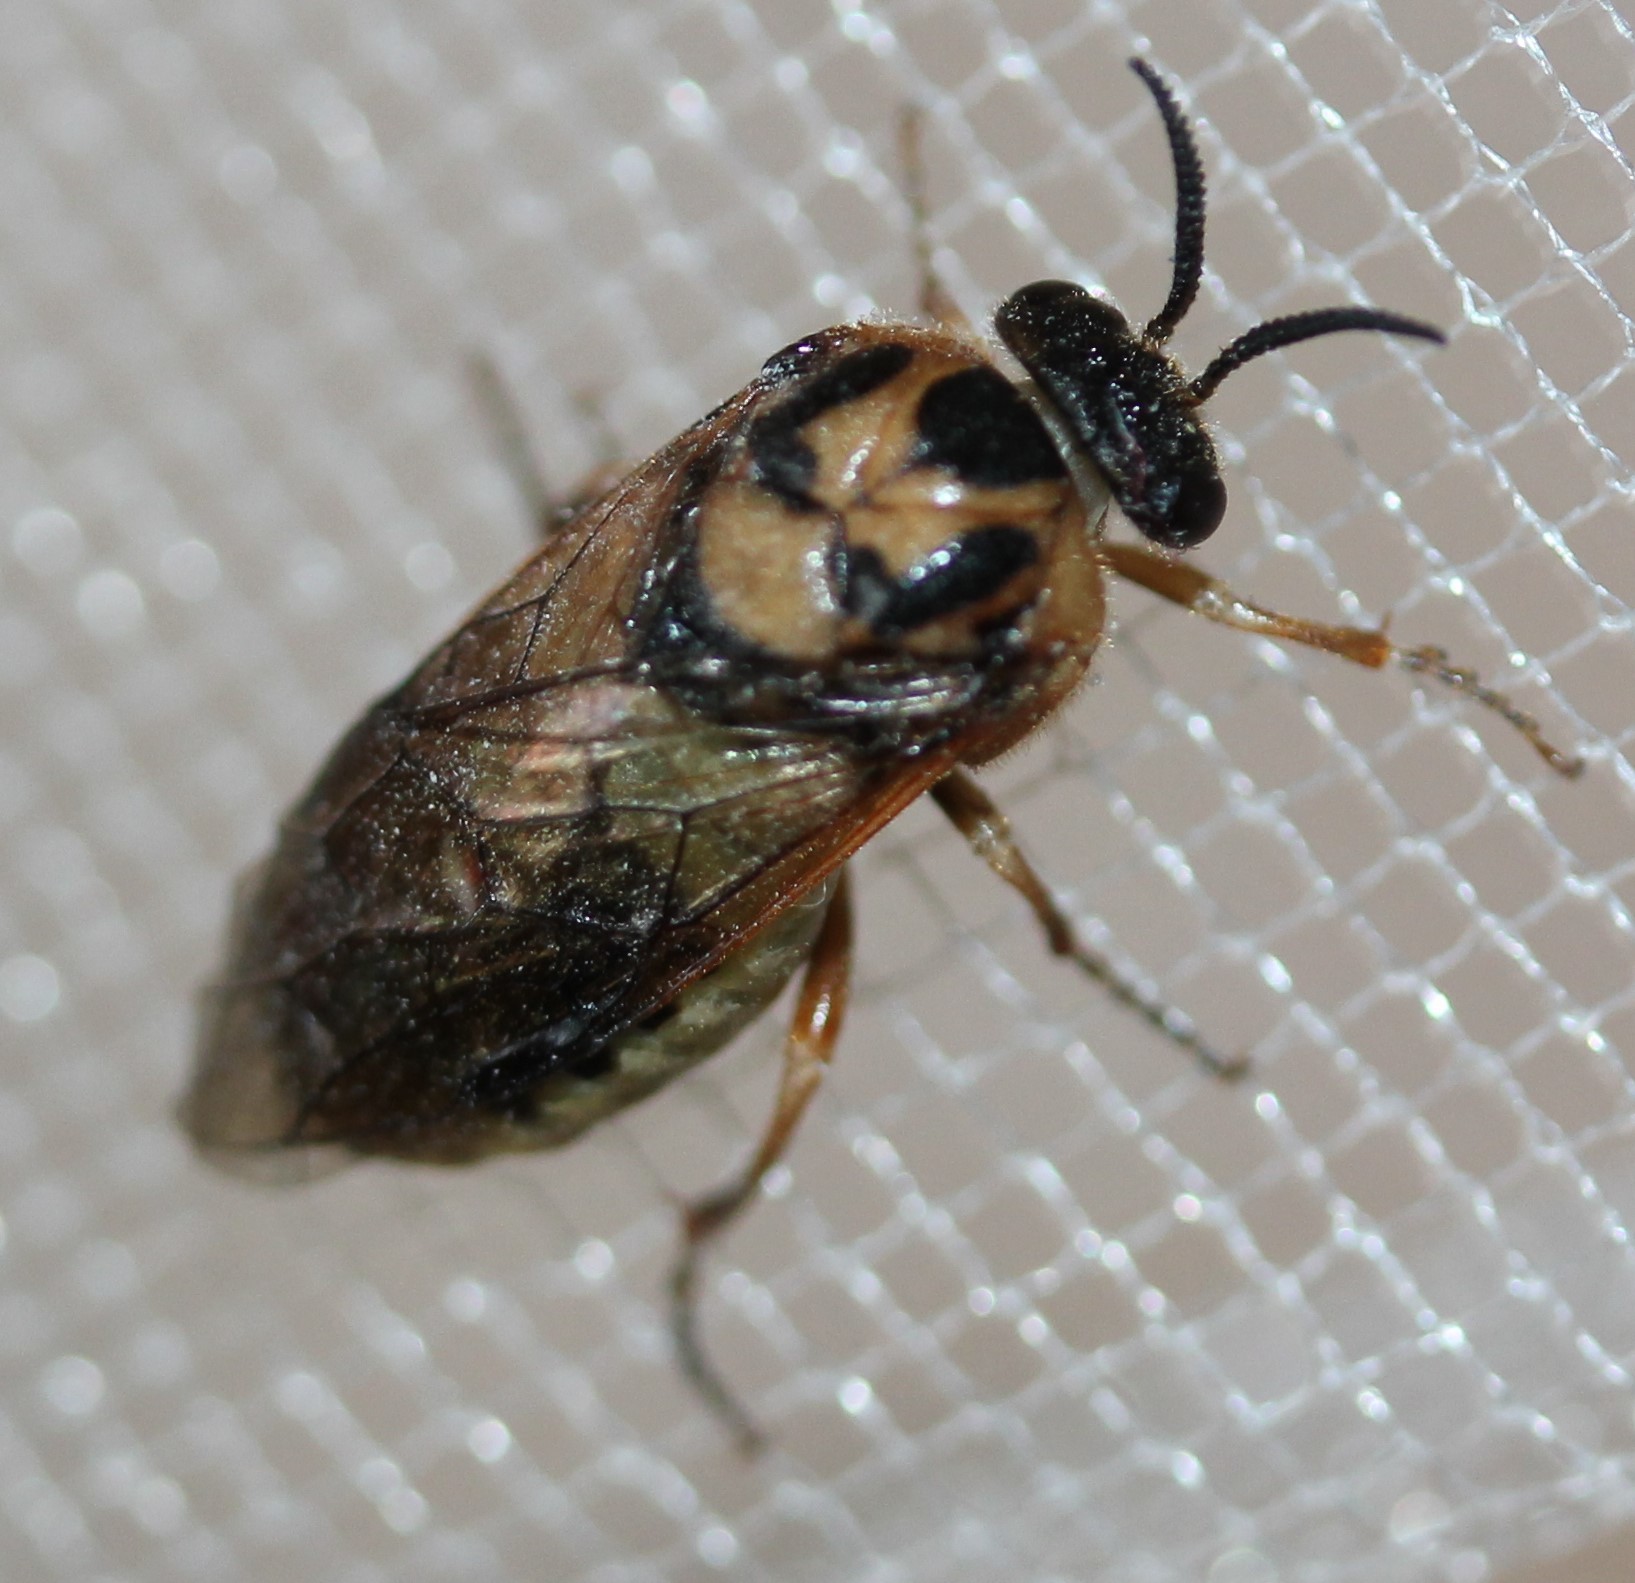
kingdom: Animalia
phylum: Arthropoda
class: Insecta
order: Hymenoptera
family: Diprionidae
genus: Diprion
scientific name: Diprion similis
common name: Pine sawfly
